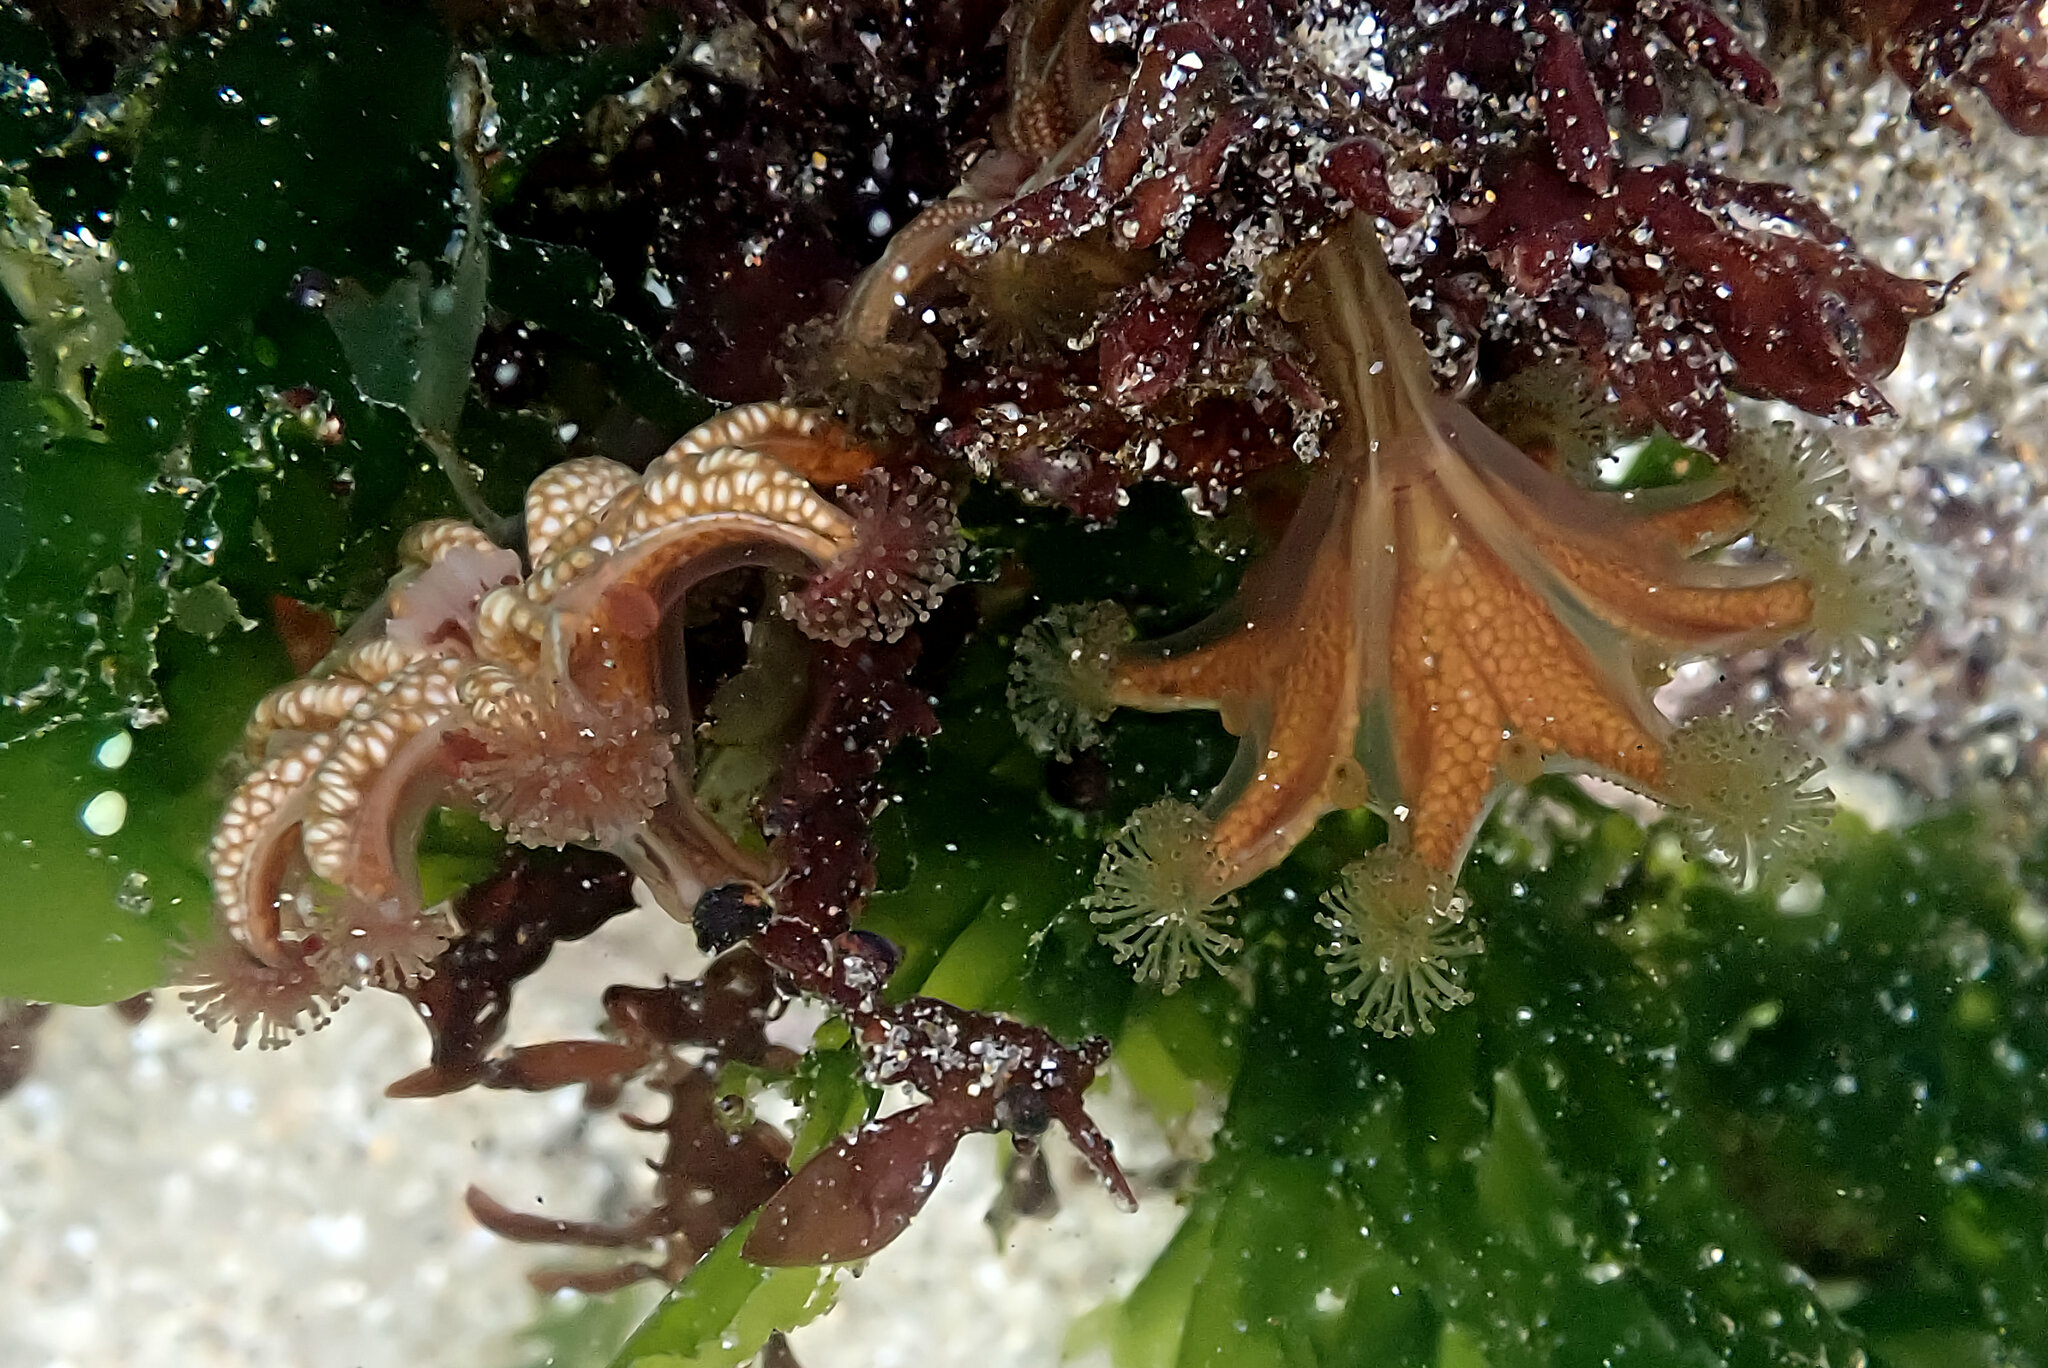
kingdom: Animalia
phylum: Cnidaria
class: Staurozoa
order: Stauromedusae
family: Haliclystidae
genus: Haliclystus
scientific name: Haliclystus sanjuanensis
